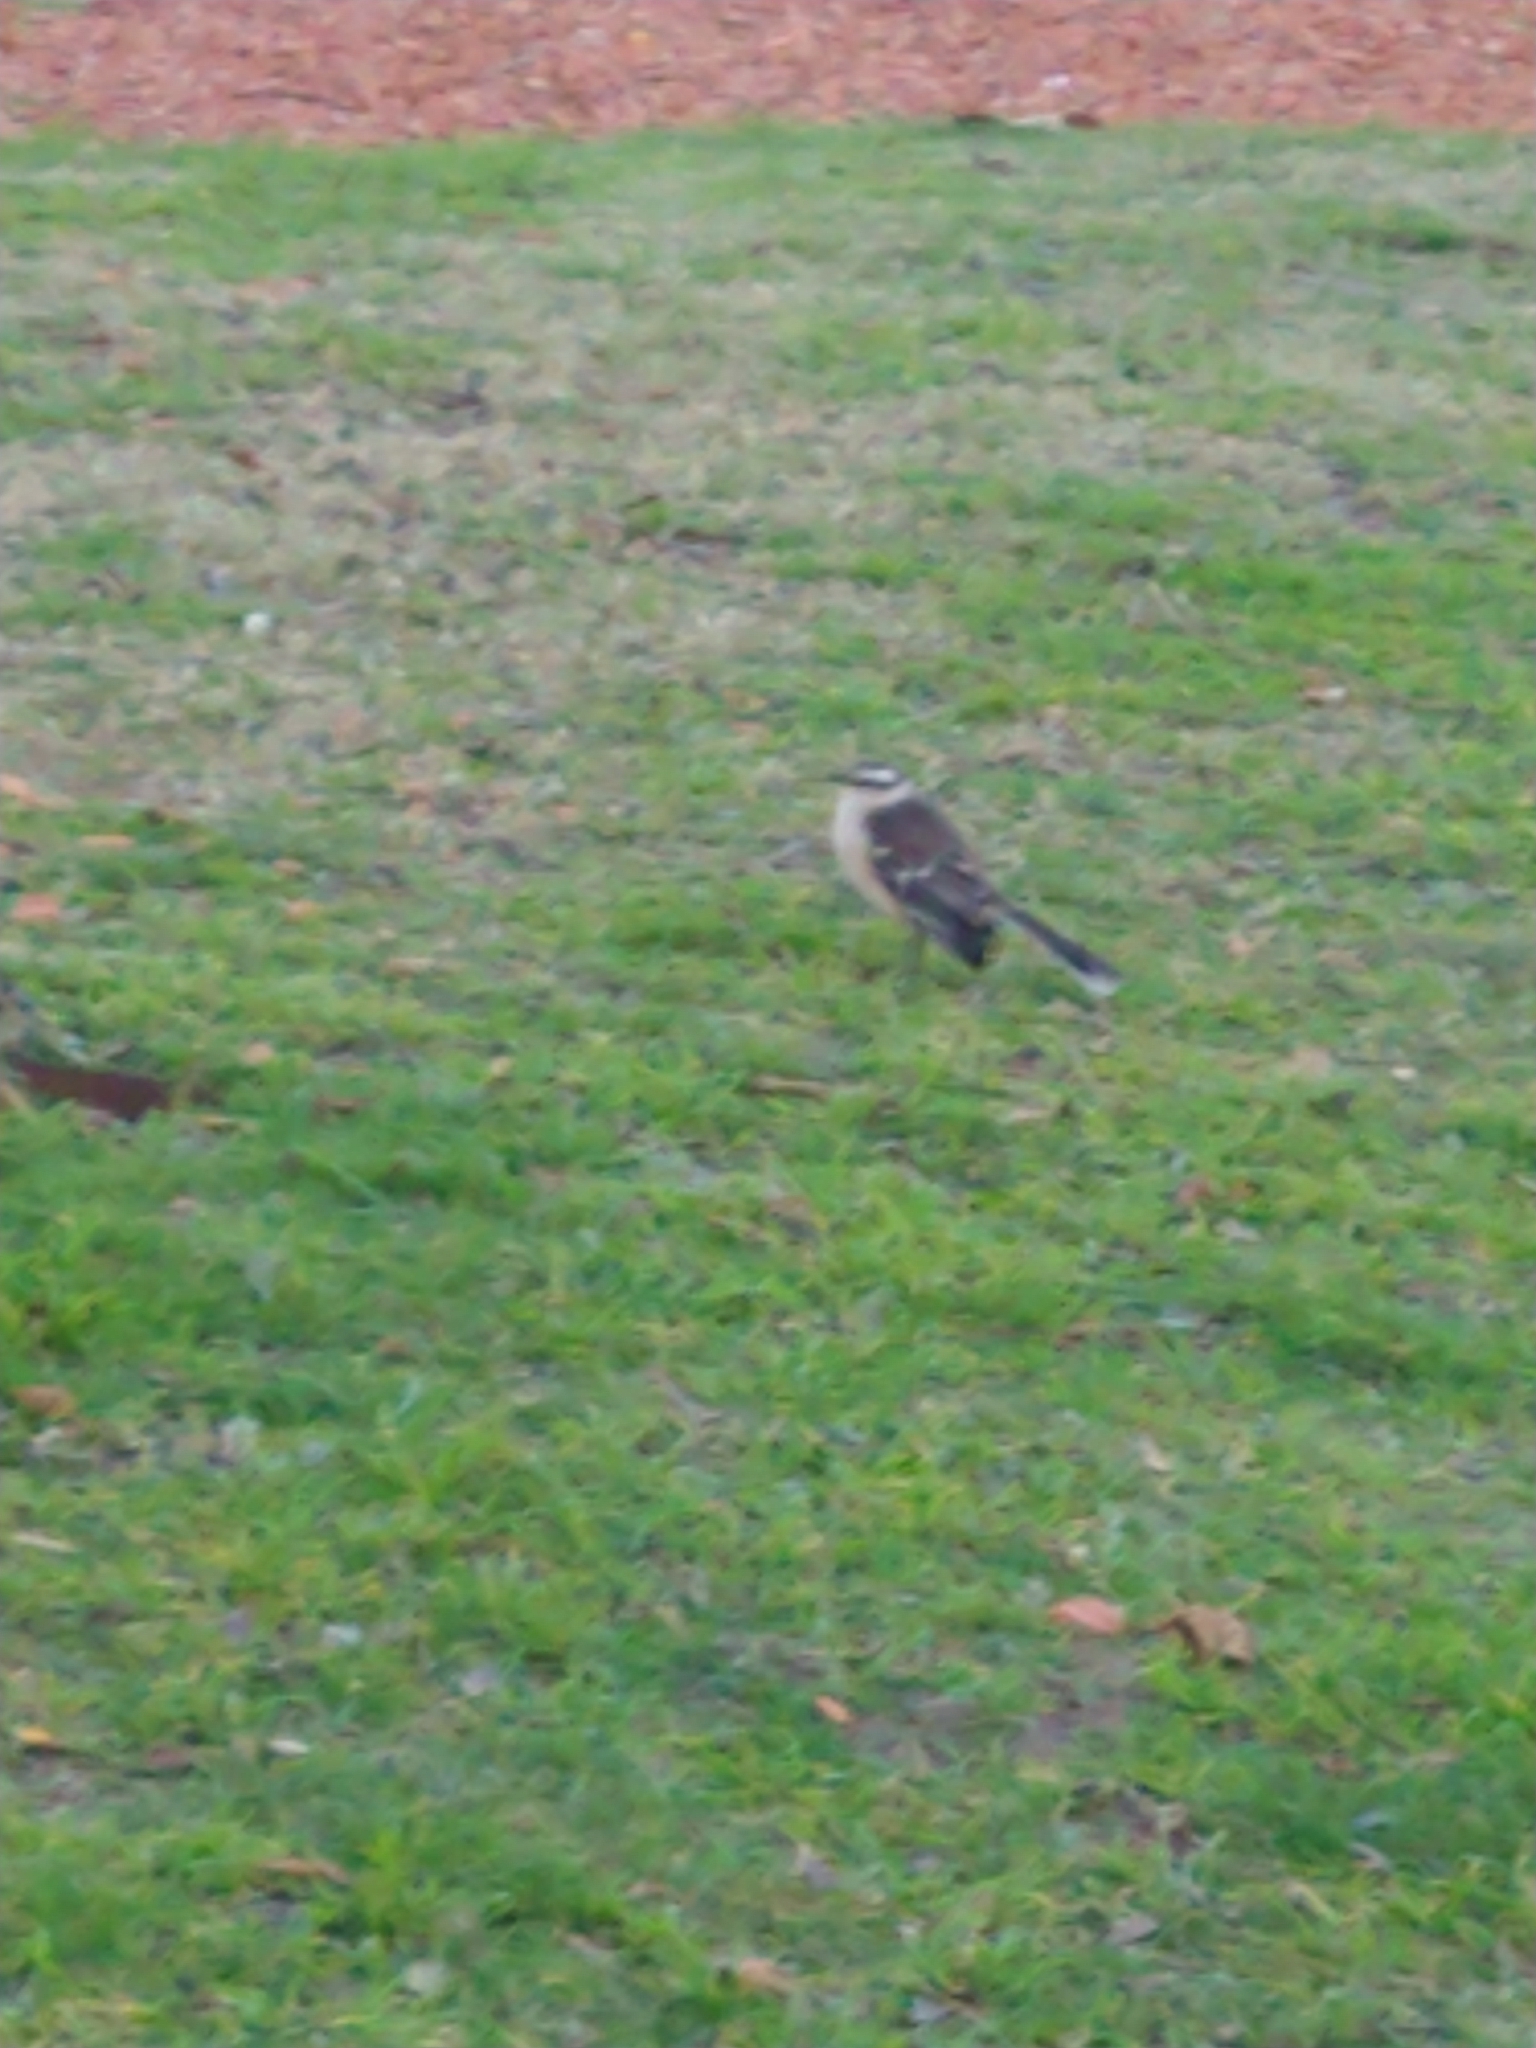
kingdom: Animalia
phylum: Chordata
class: Aves
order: Passeriformes
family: Mimidae
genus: Mimus
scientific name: Mimus saturninus
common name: Chalk-browed mockingbird
